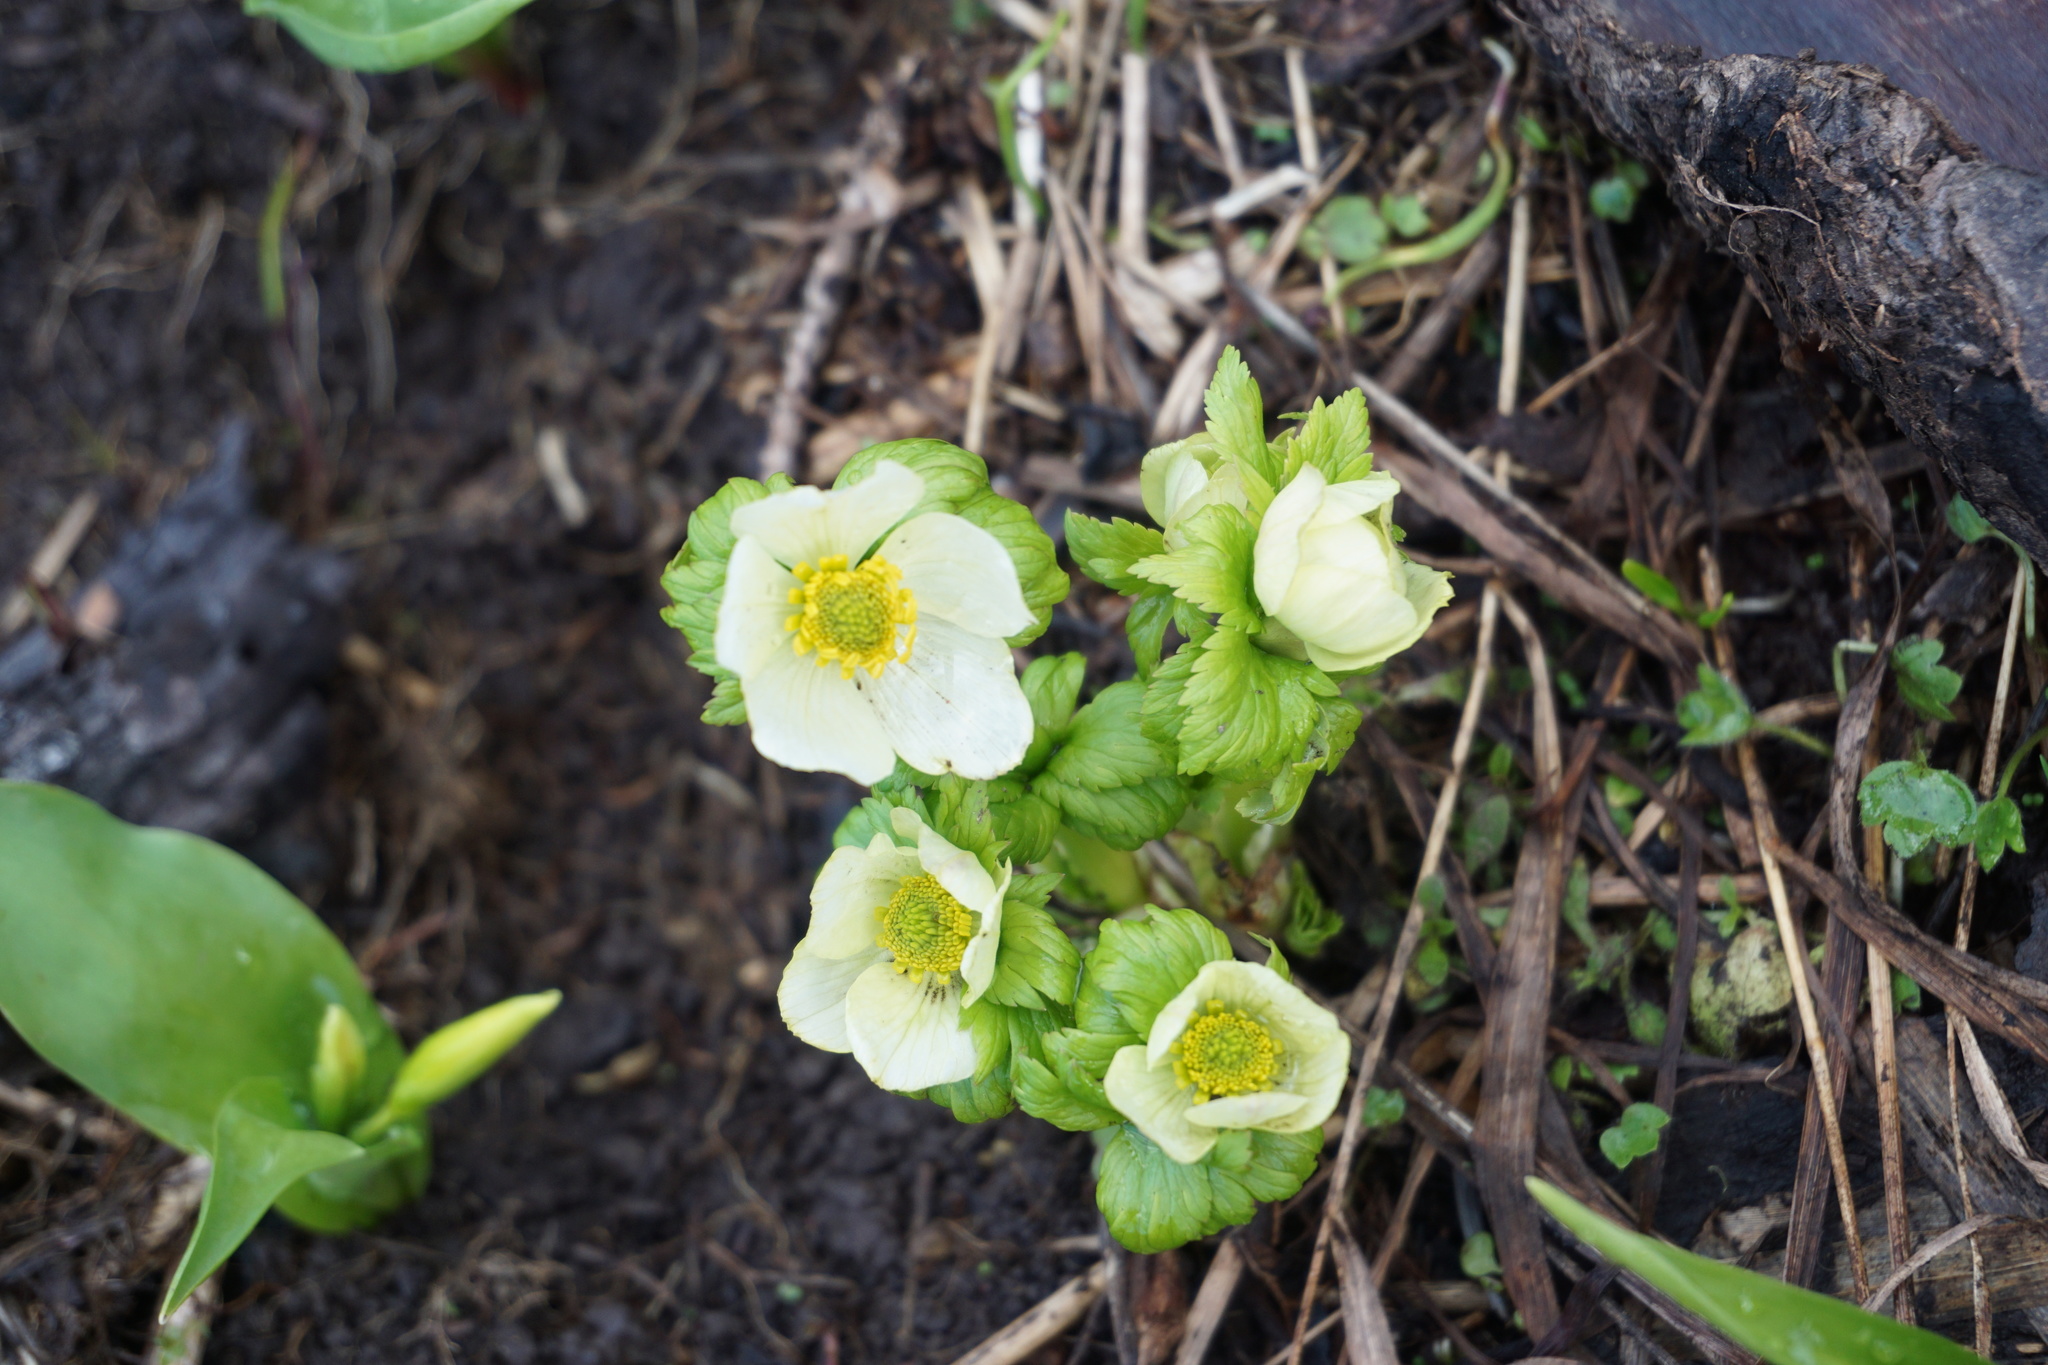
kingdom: Plantae
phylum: Tracheophyta
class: Magnoliopsida
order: Ranunculales
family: Ranunculaceae
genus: Trollius
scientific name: Trollius laxus
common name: American globeflower
